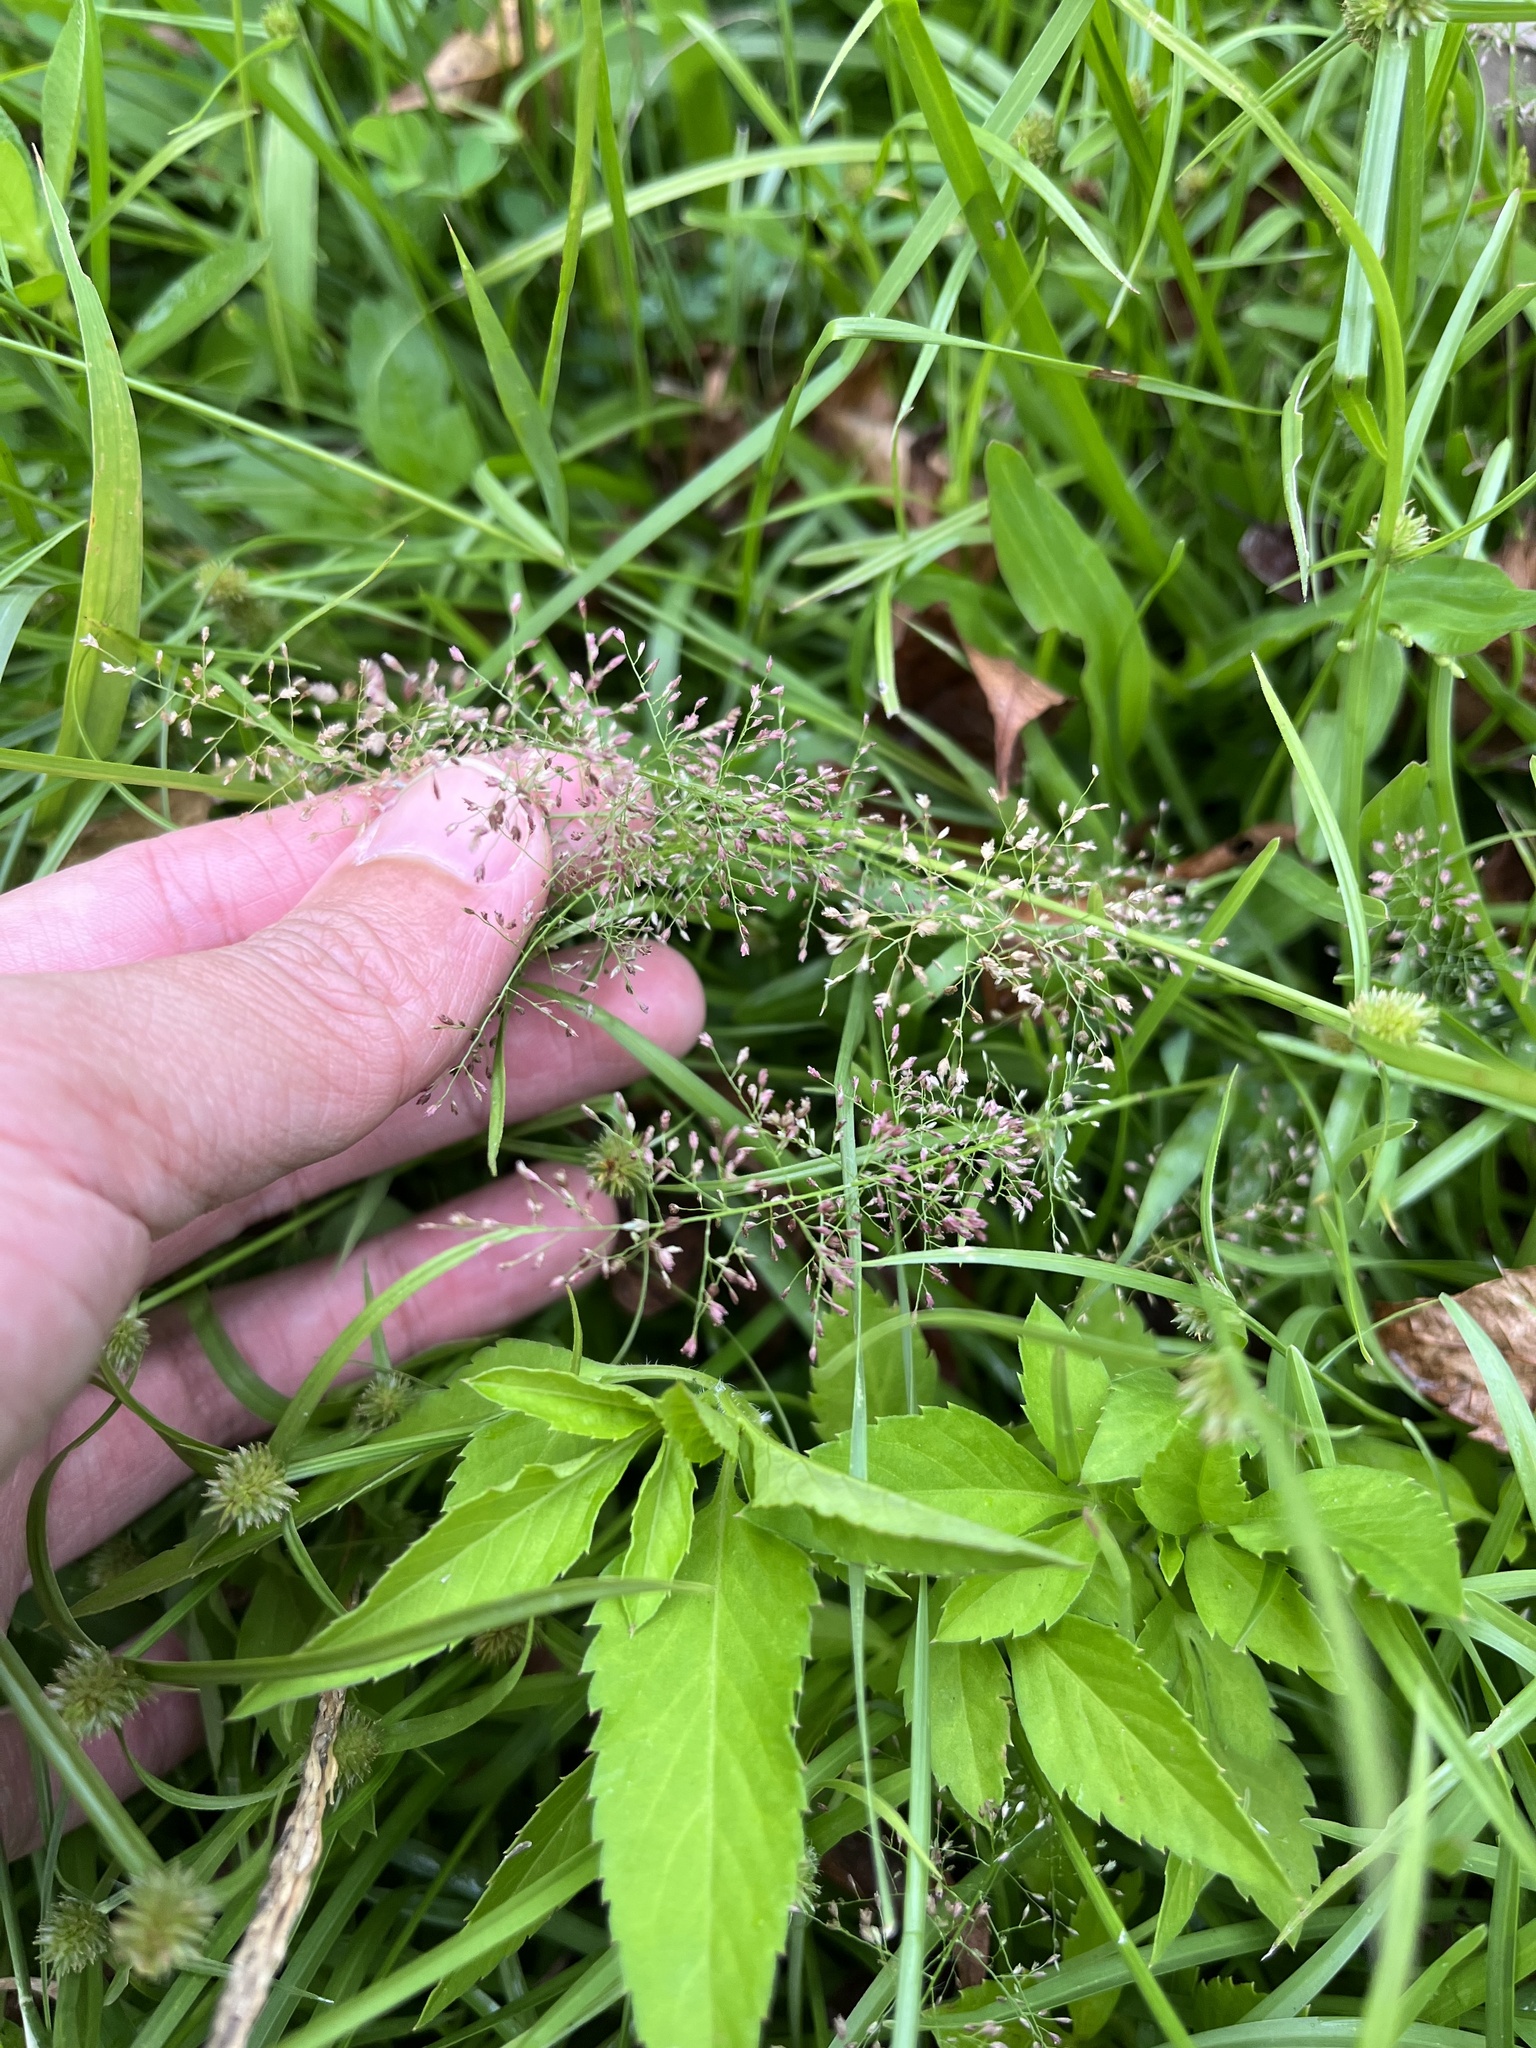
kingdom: Plantae
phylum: Tracheophyta
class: Liliopsida
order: Poales
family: Poaceae
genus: Eragrostis
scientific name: Eragrostis tenella
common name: Japanese lovegrass
